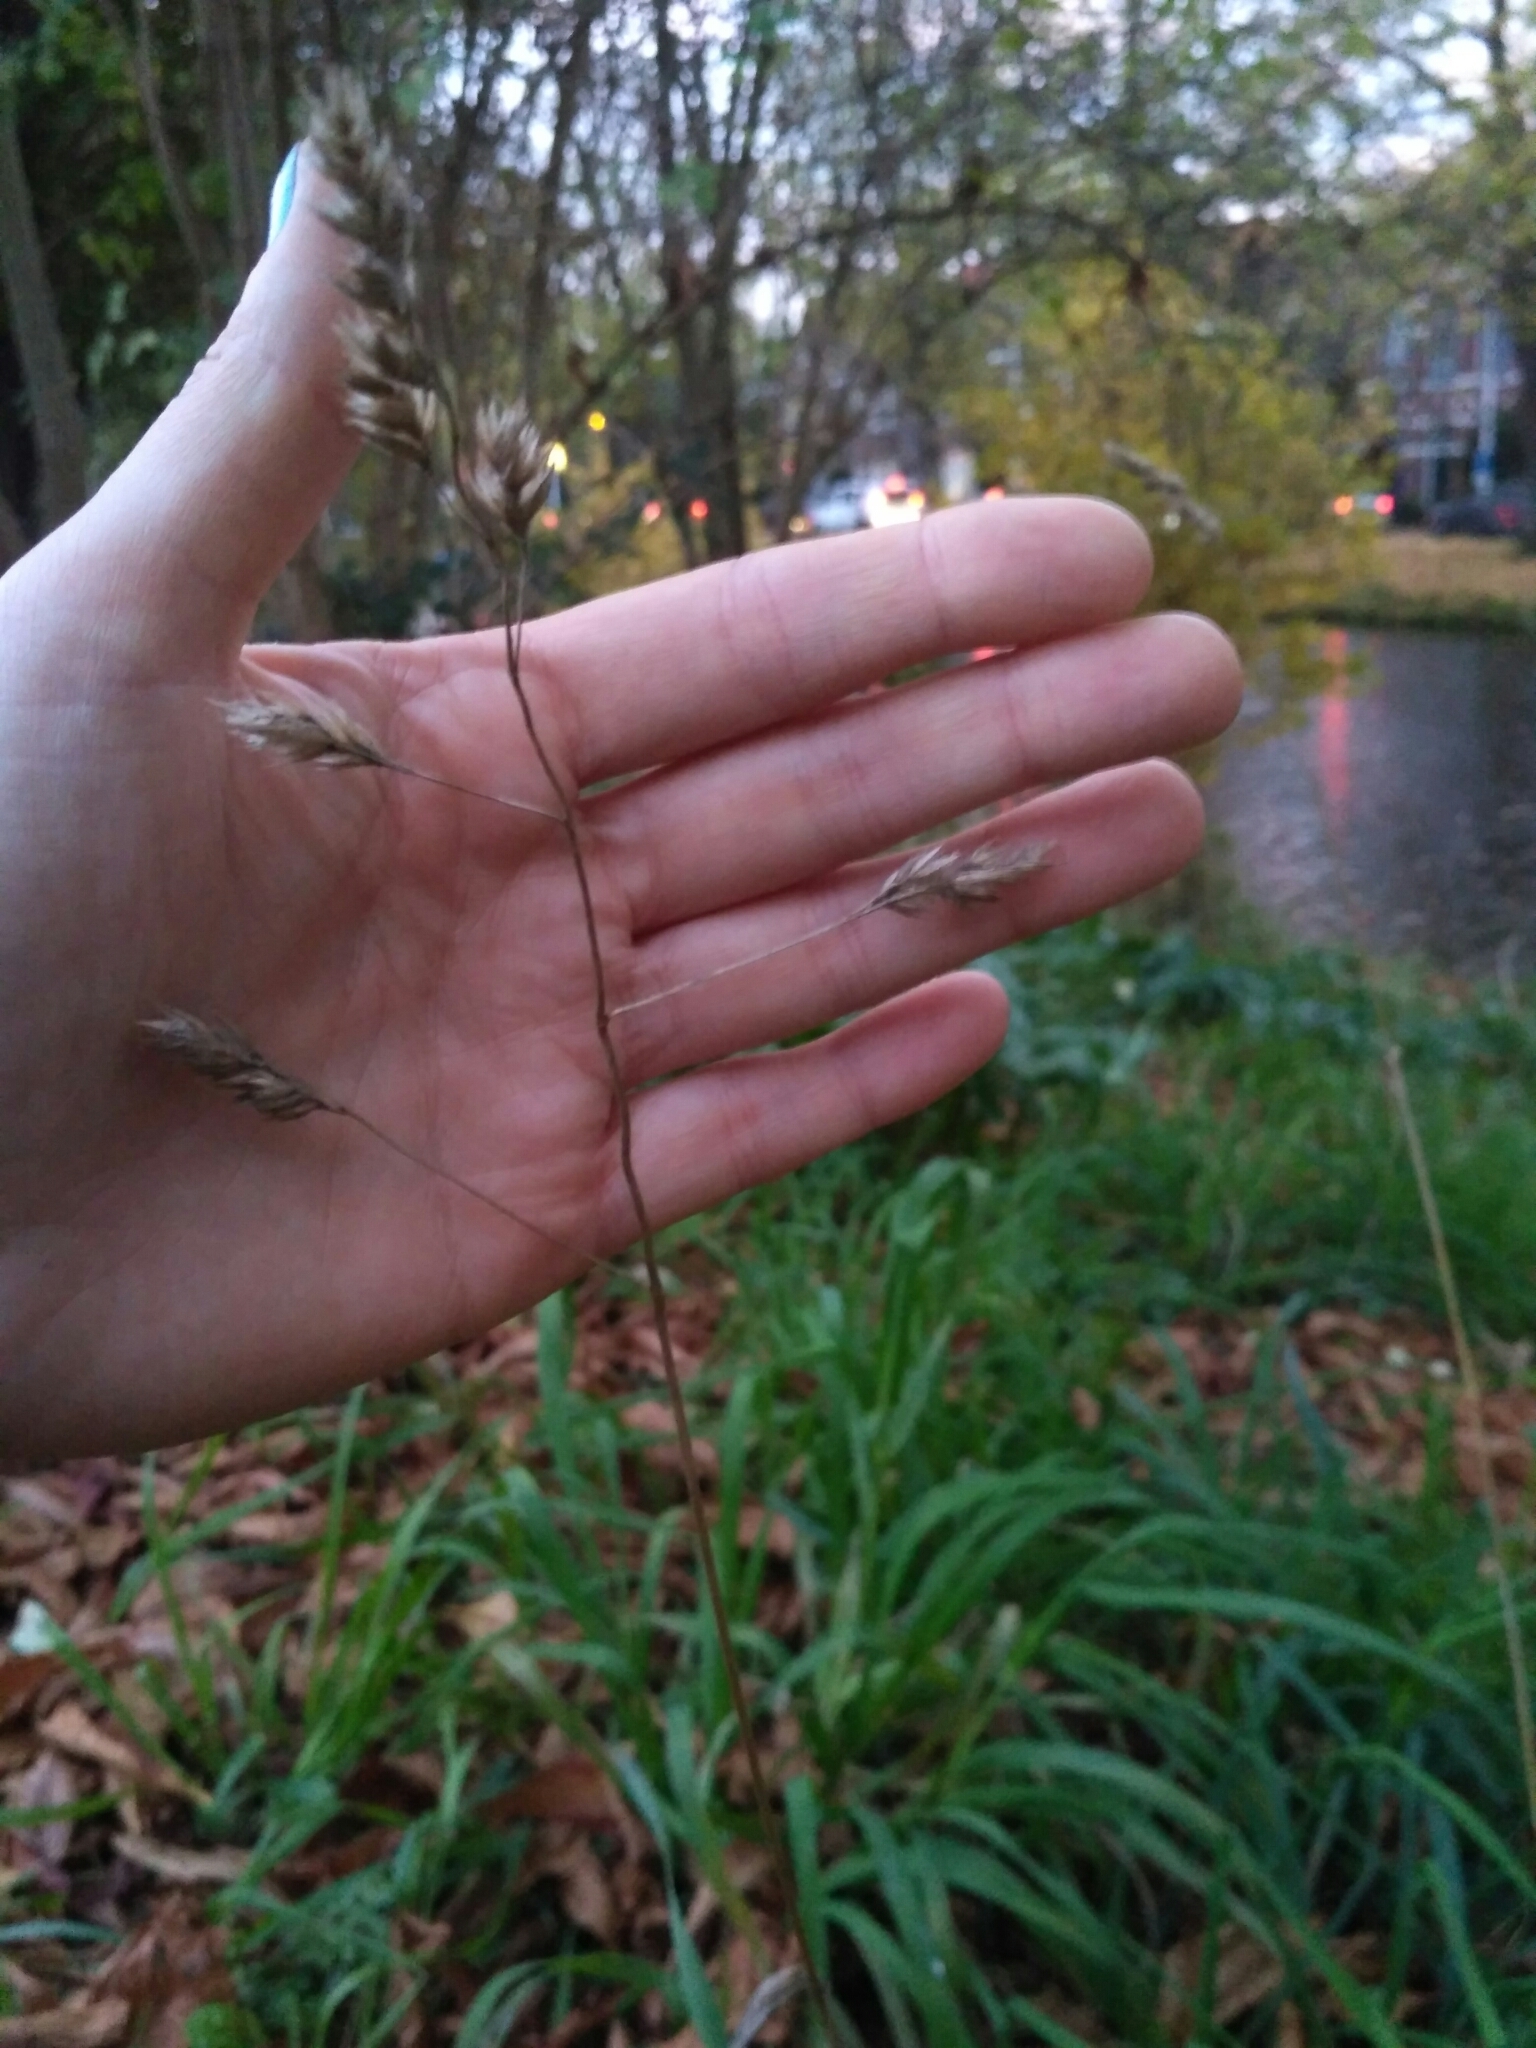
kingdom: Plantae
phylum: Tracheophyta
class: Liliopsida
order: Poales
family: Poaceae
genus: Dactylis
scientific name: Dactylis glomerata
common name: Orchardgrass
